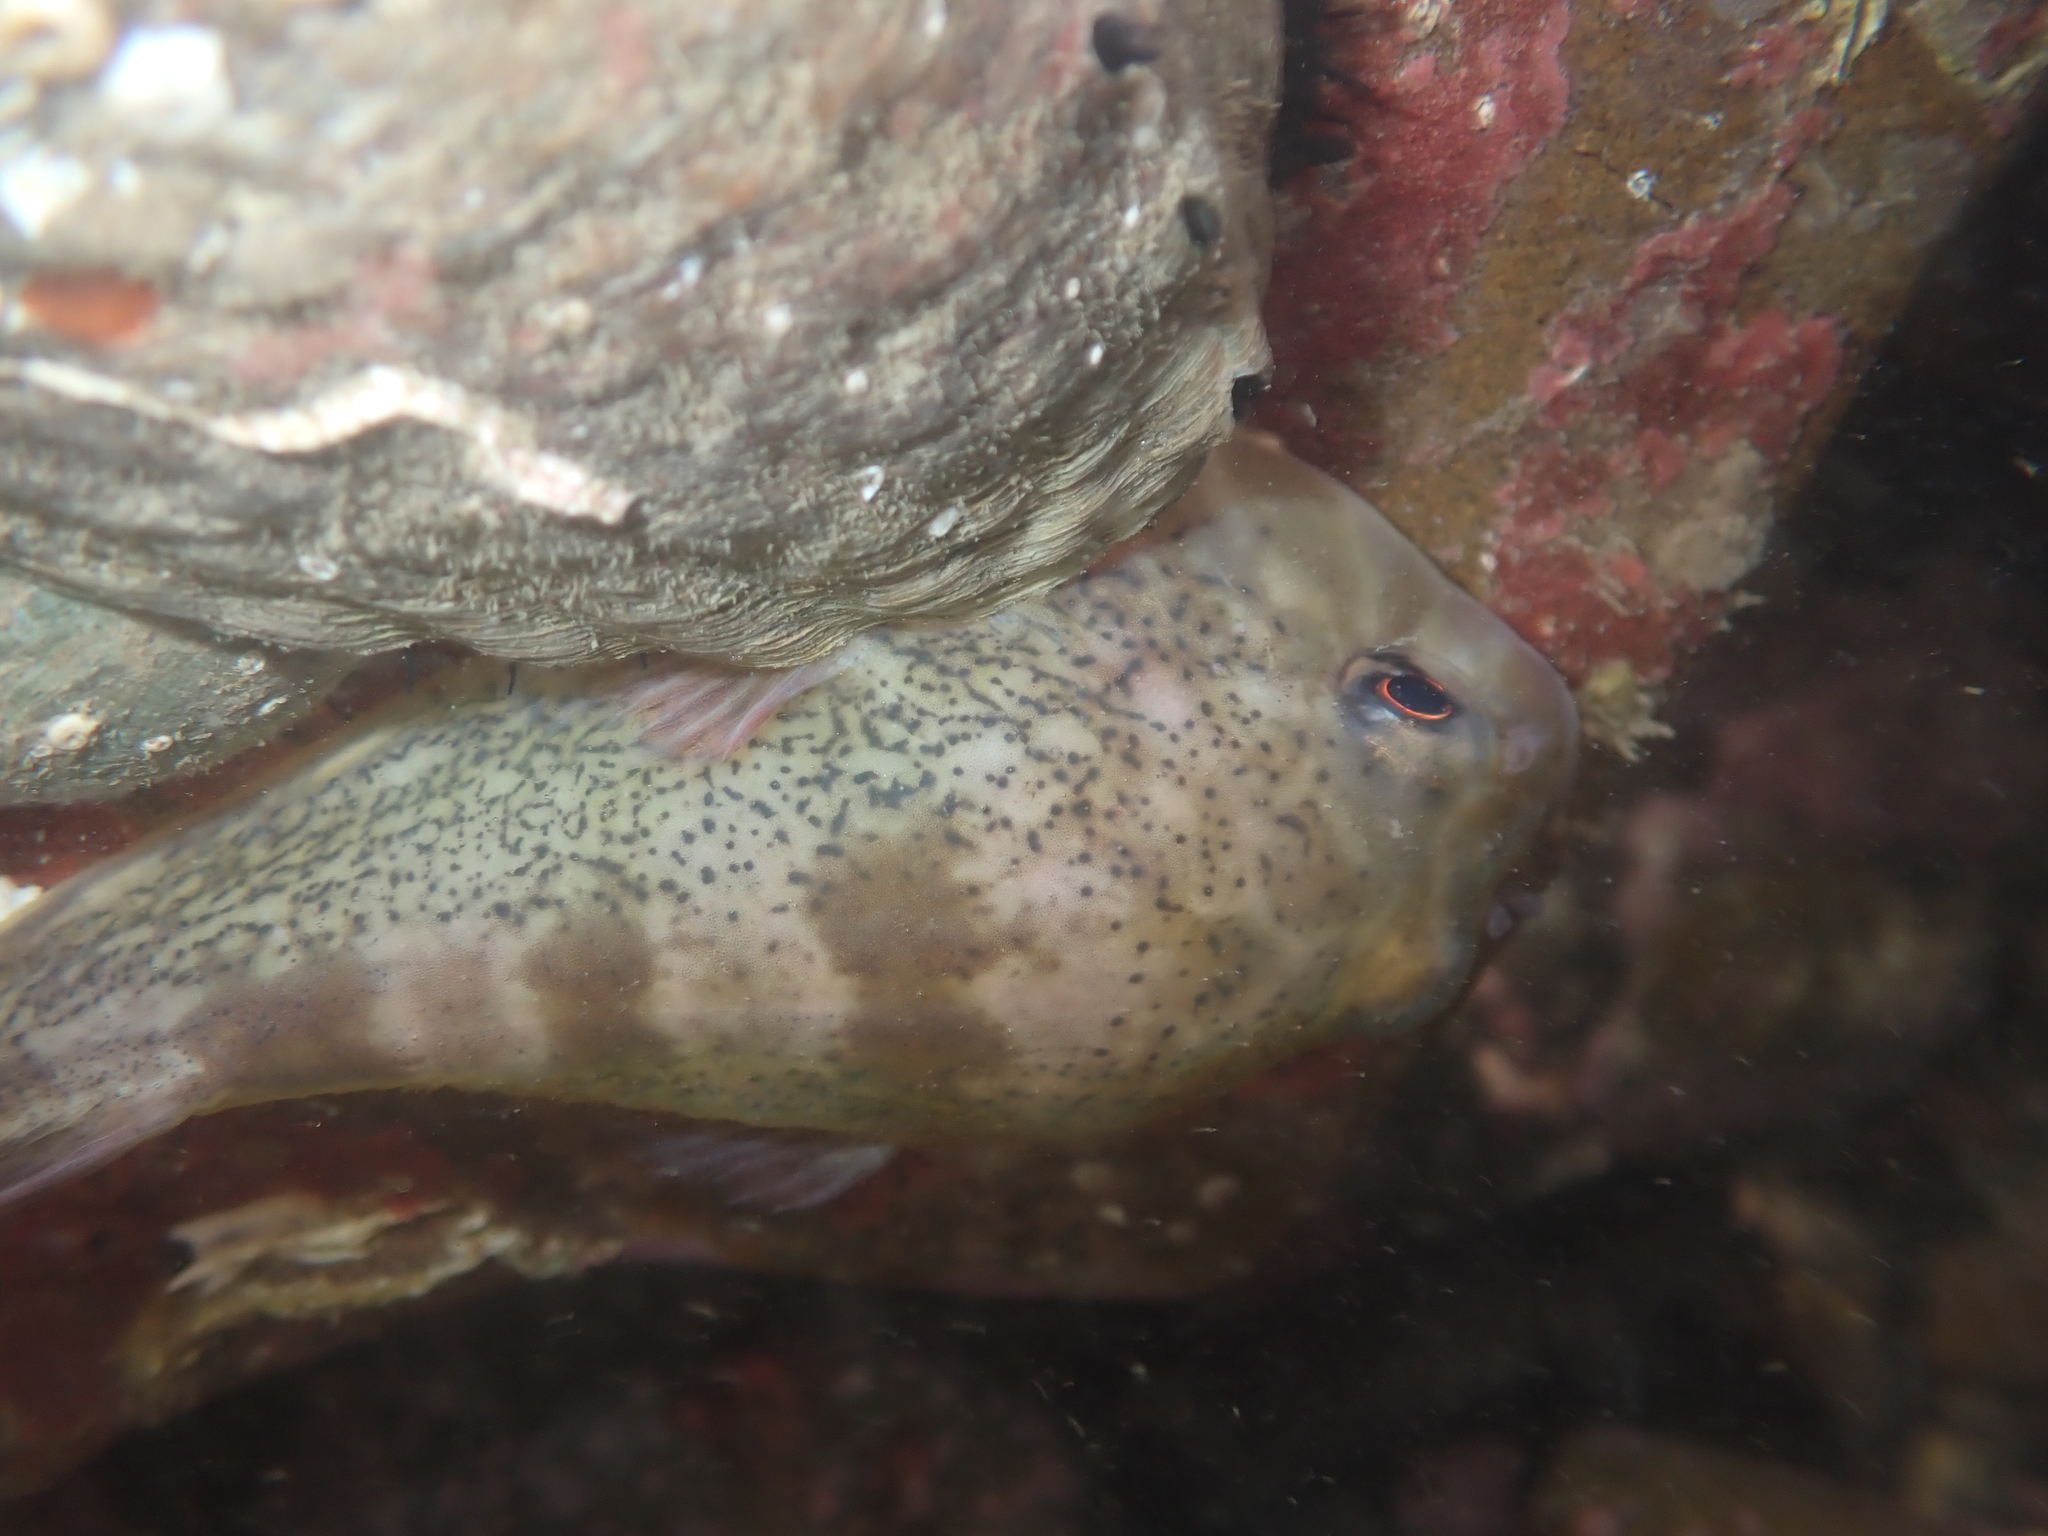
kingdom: Animalia
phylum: Chordata
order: Gobiesociformes
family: Gobiesocidae
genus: Diplocrepis
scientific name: Diplocrepis puniceus
